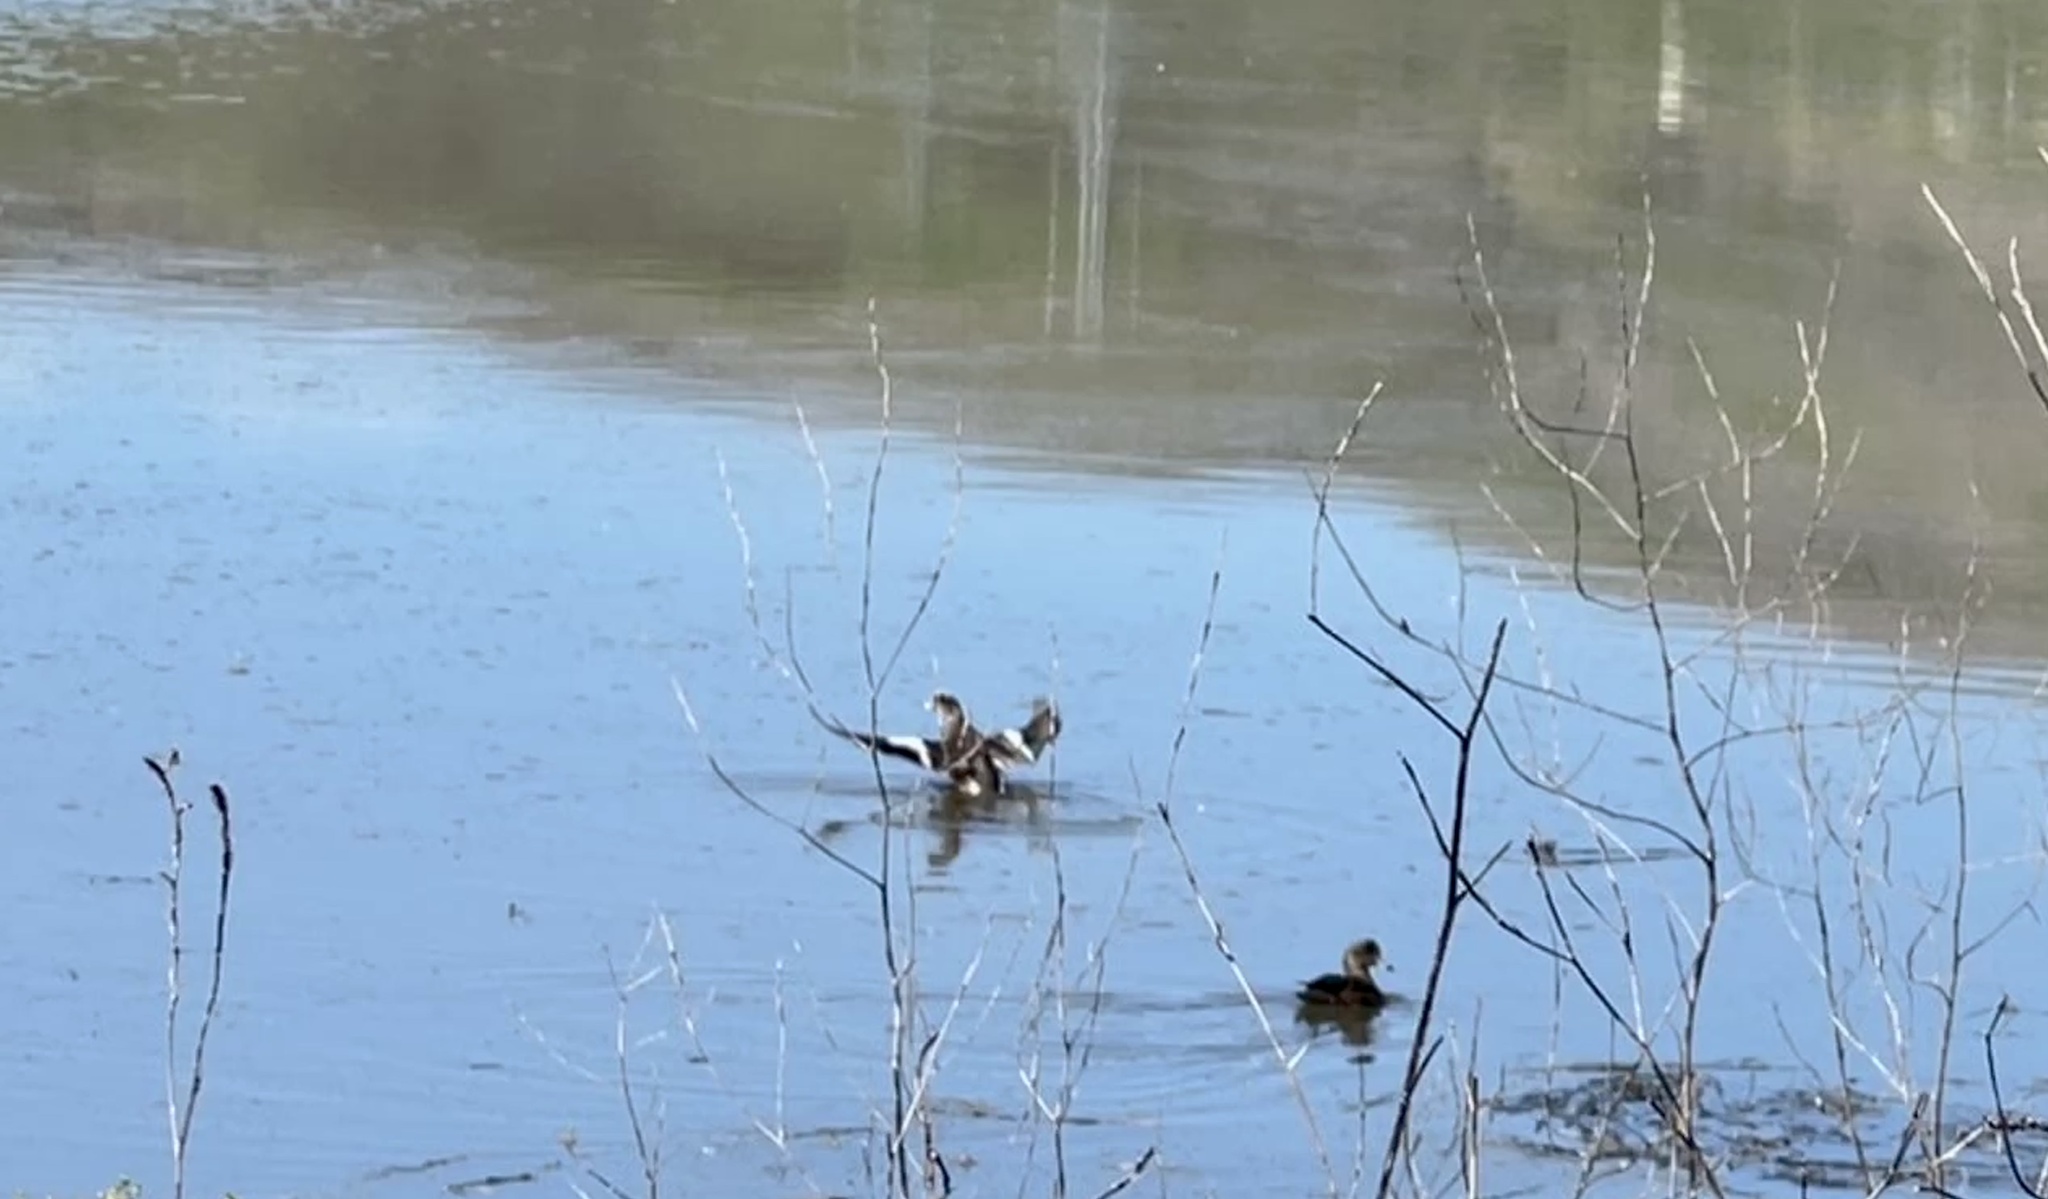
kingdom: Animalia
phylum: Chordata
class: Aves
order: Anseriformes
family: Anatidae
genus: Mareca
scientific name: Mareca americana
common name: American wigeon
